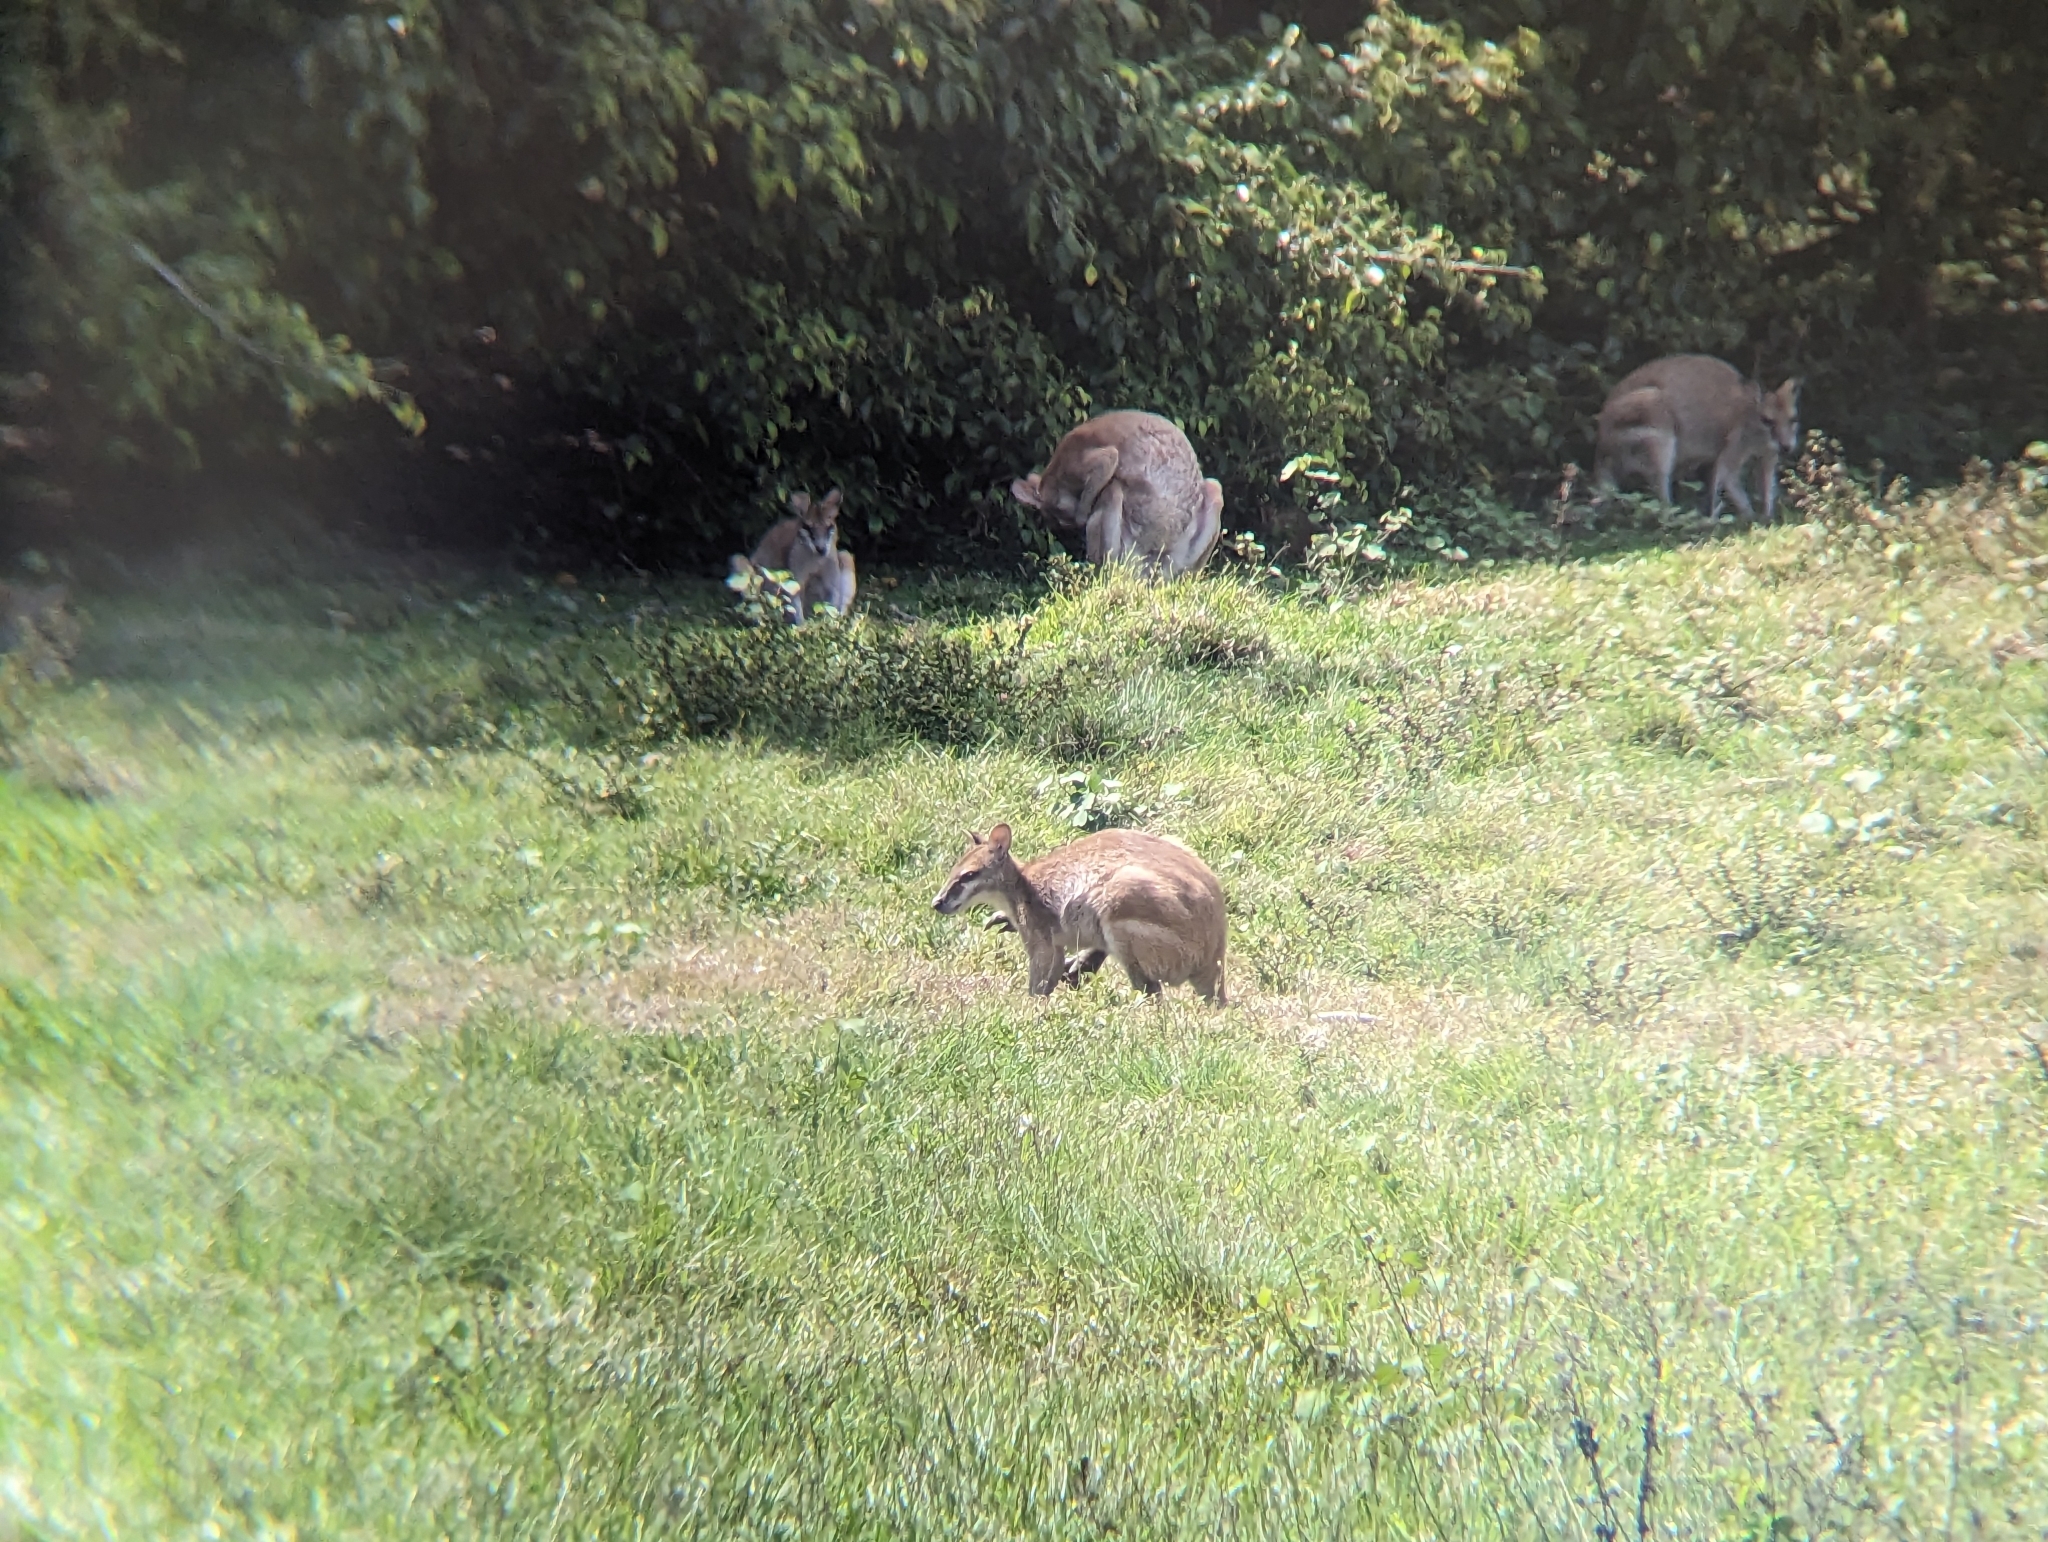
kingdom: Animalia
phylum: Chordata
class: Mammalia
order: Diprotodontia
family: Macropodidae
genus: Macropus
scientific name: Macropus agilis
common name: Agile wallaby
